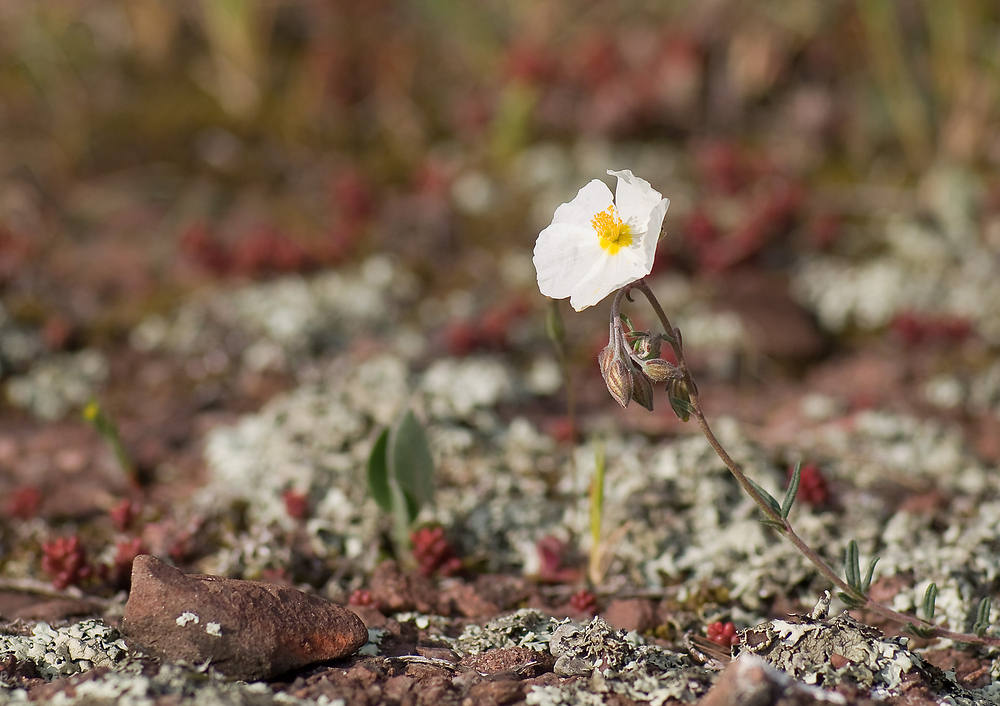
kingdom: Plantae
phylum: Tracheophyta
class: Magnoliopsida
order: Malvales
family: Cistaceae
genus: Helianthemum
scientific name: Helianthemum apenninum
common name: White rock-rose
